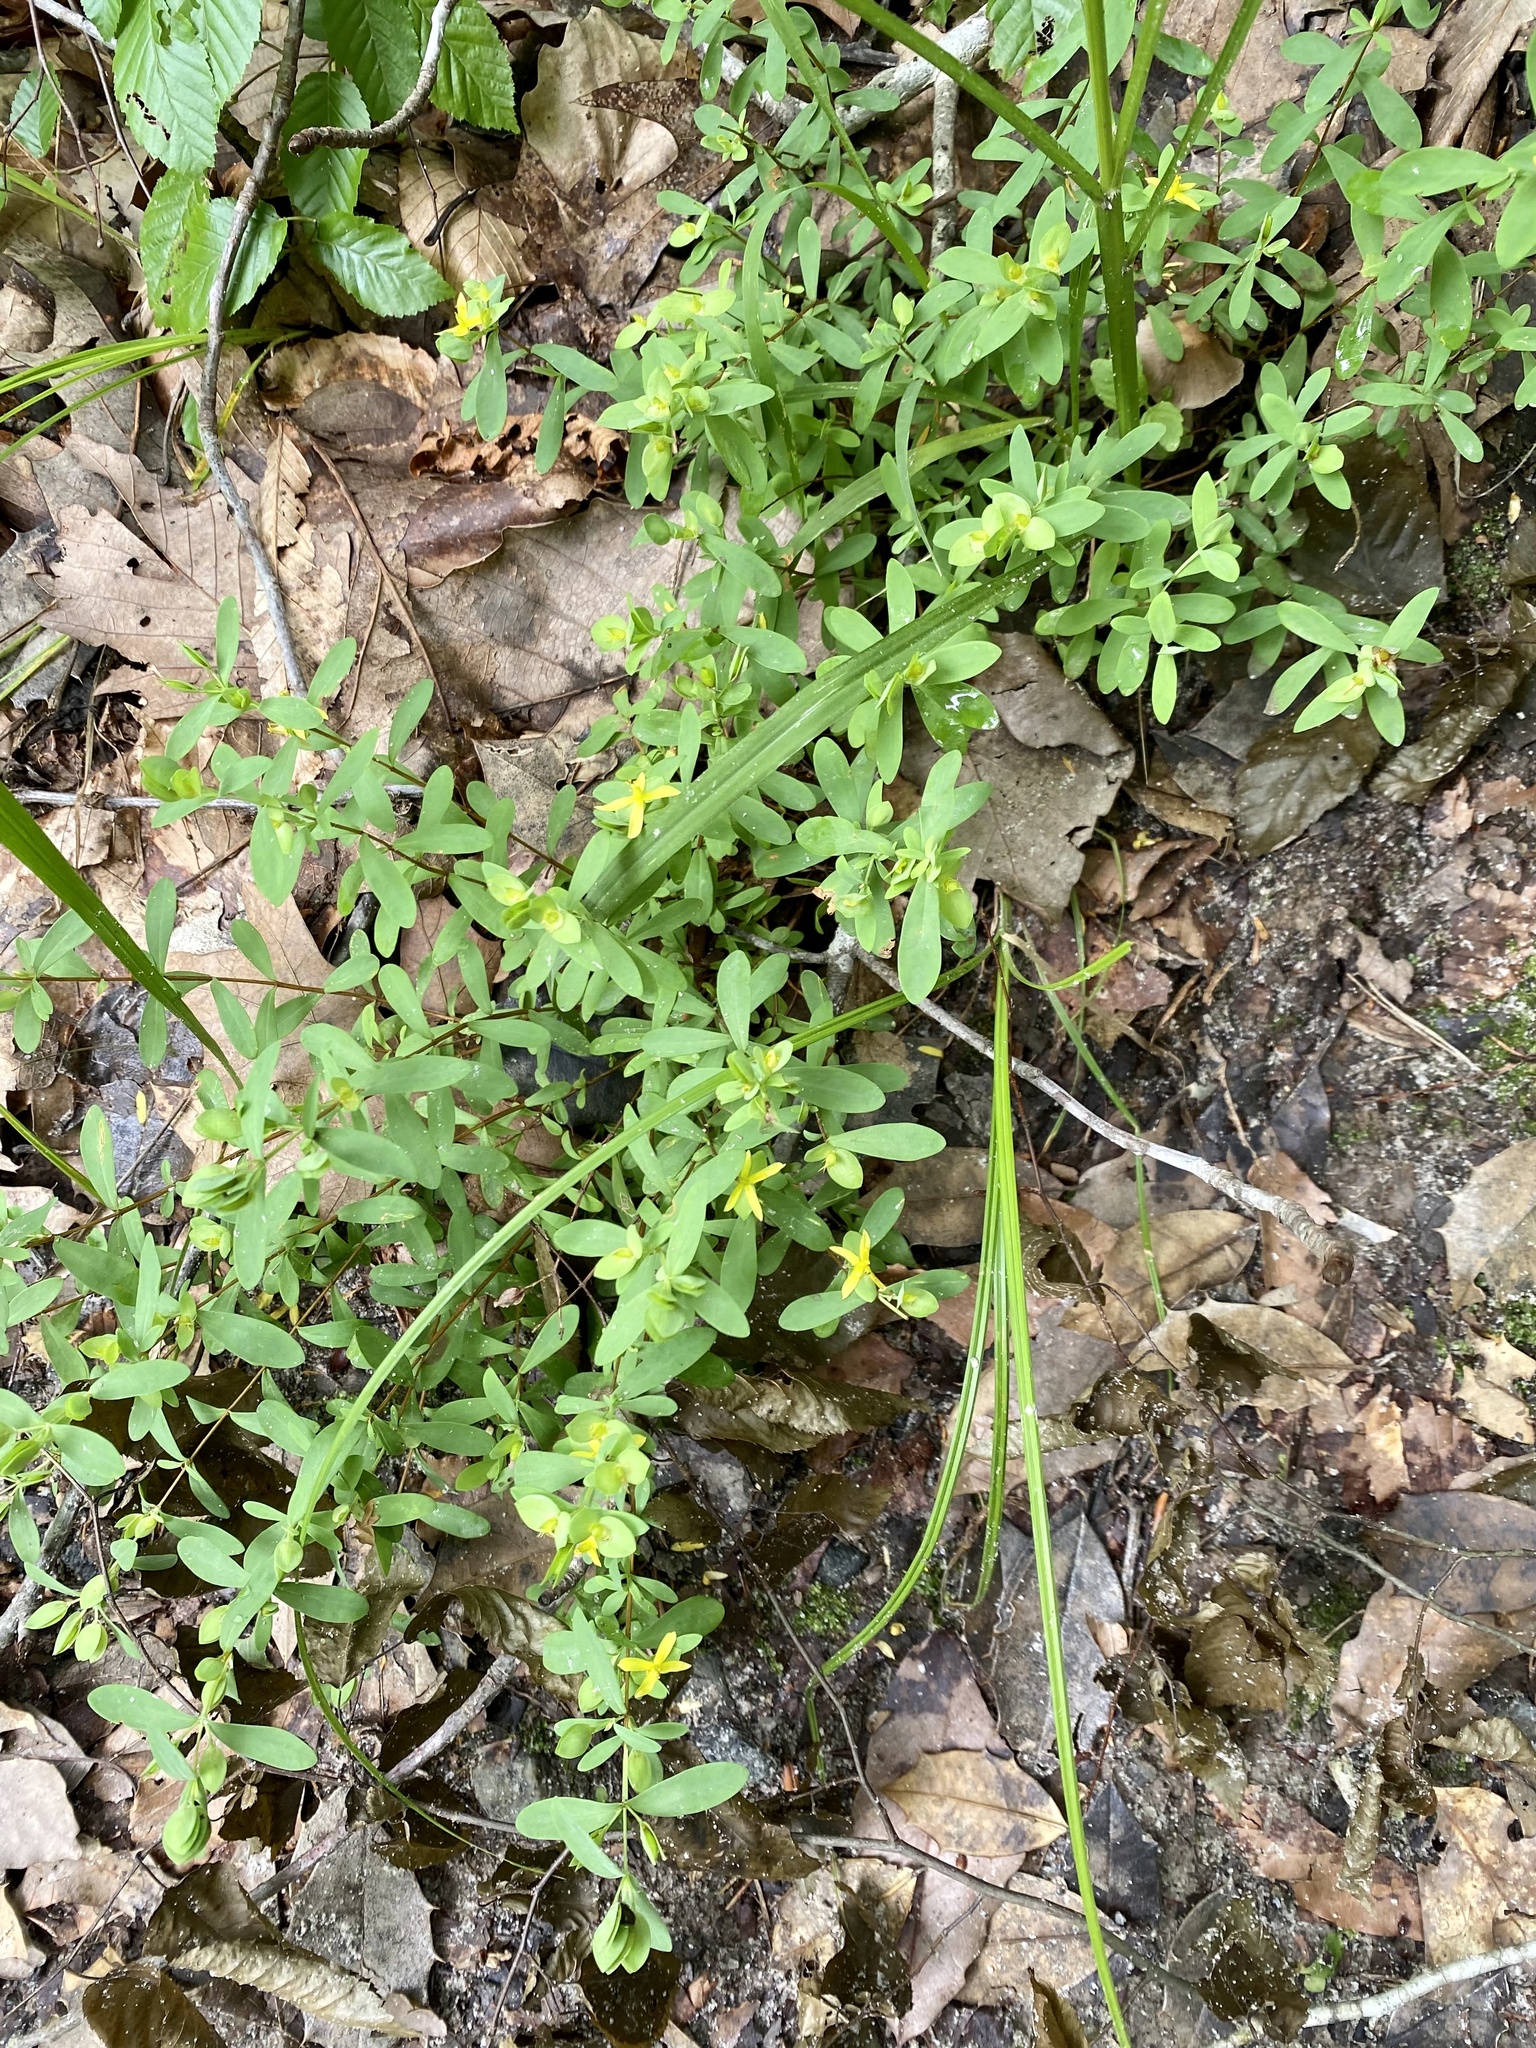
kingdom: Plantae
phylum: Tracheophyta
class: Magnoliopsida
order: Malpighiales
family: Hypericaceae
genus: Hypericum
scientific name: Hypericum hypericoides
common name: St. andrew's cross
